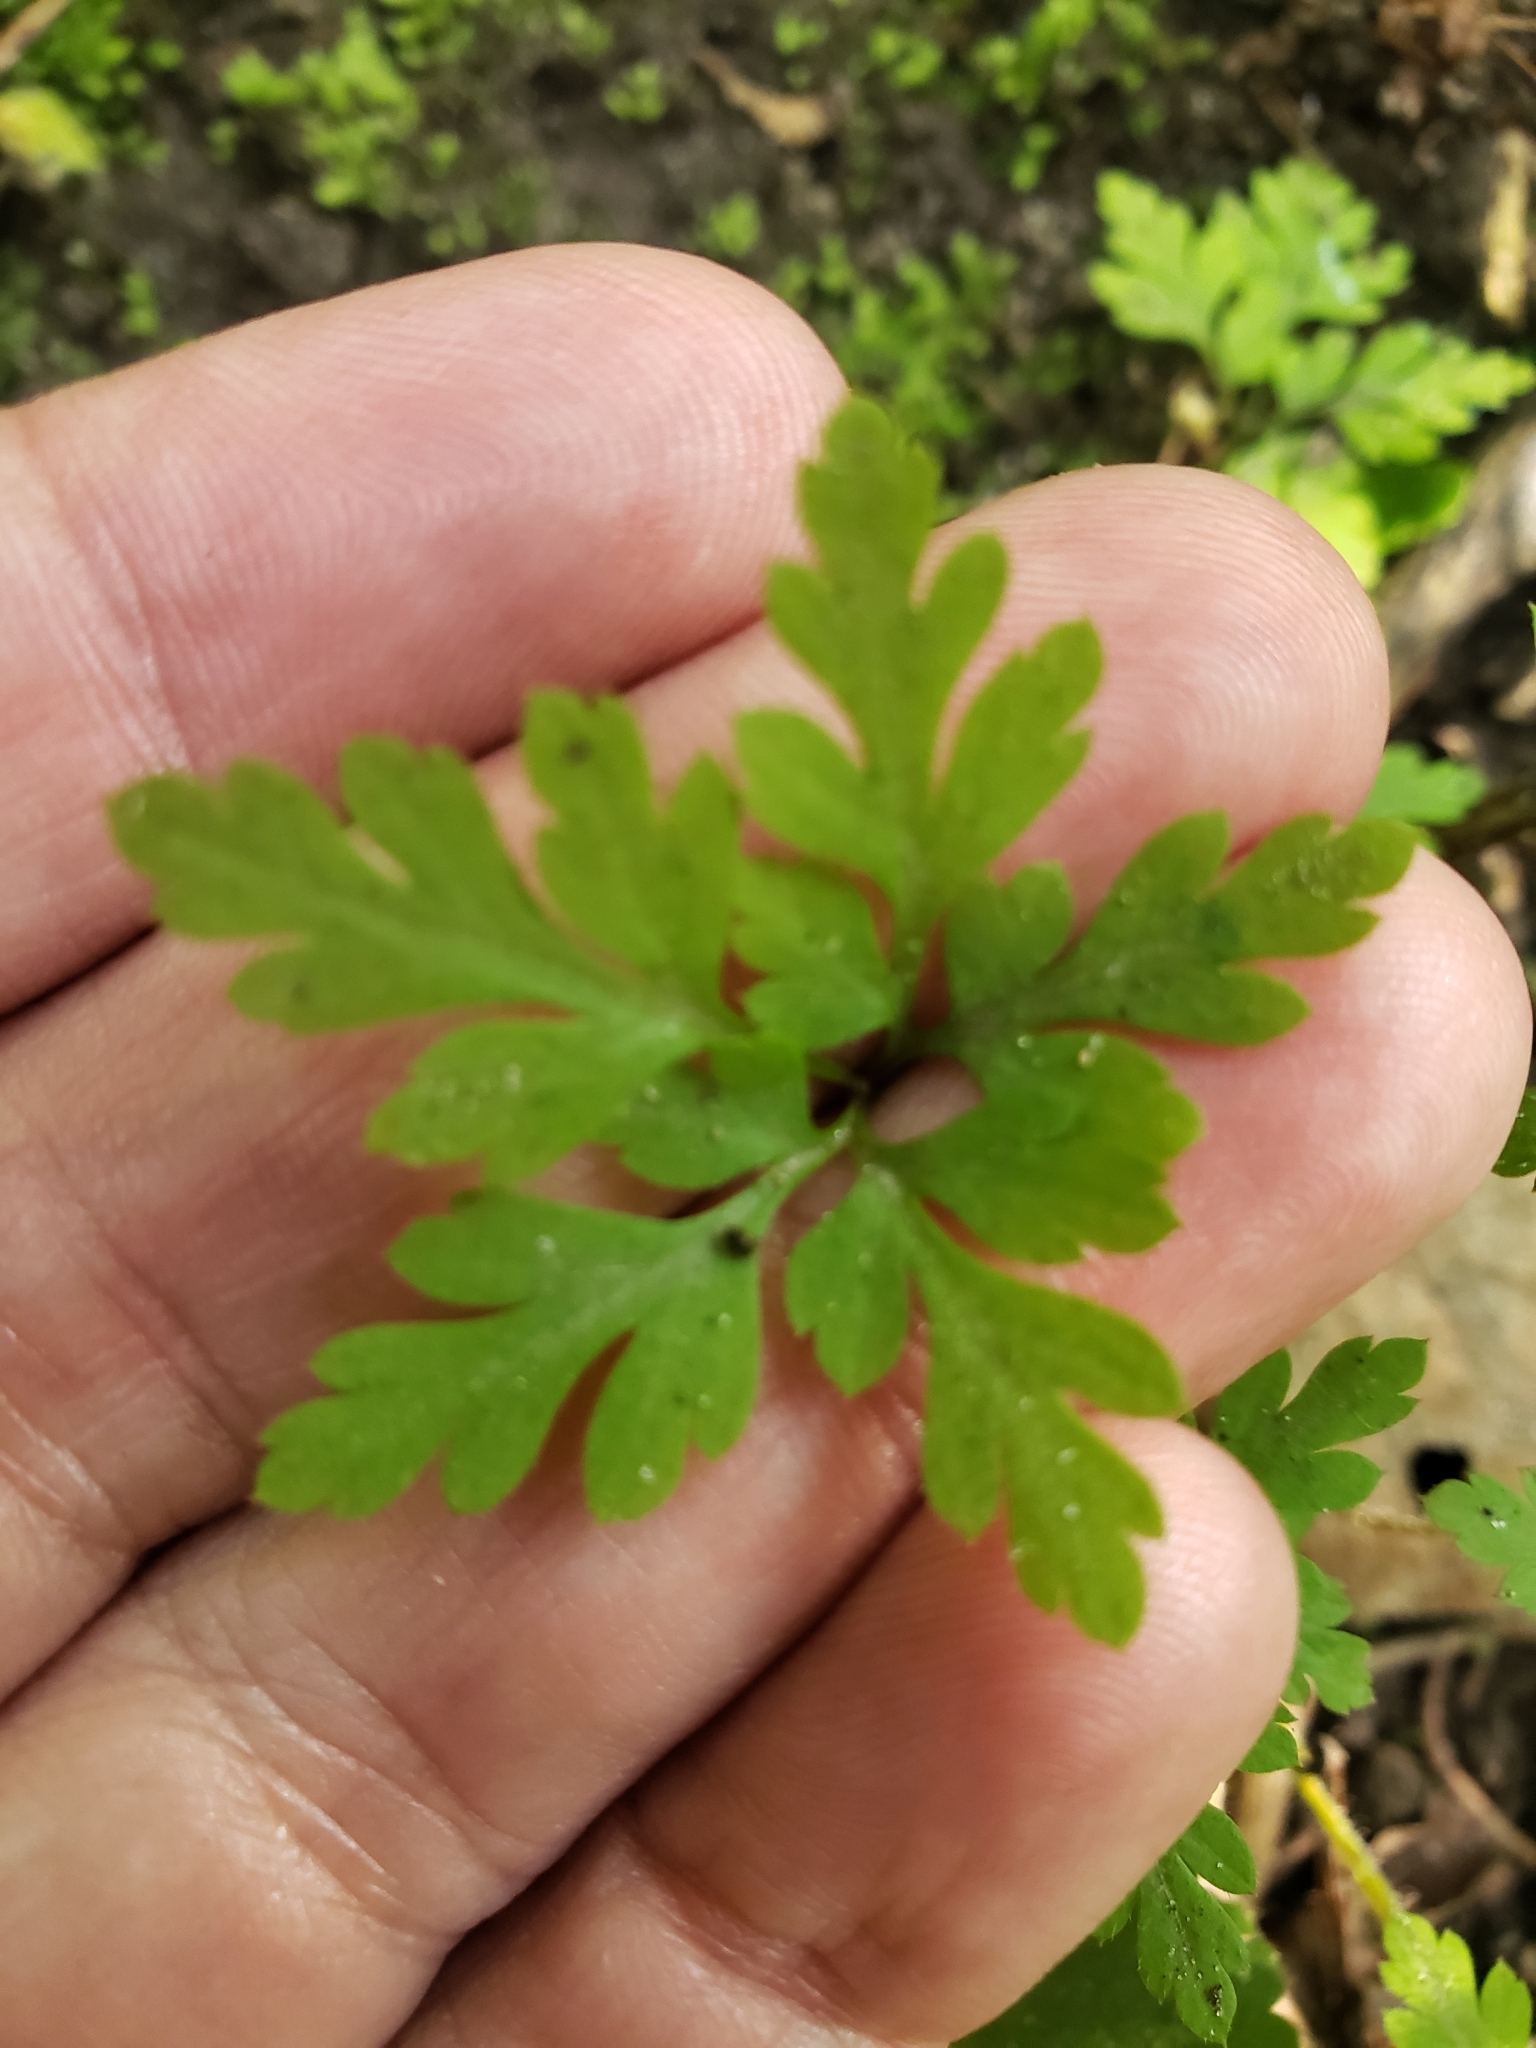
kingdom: Plantae
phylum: Tracheophyta
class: Magnoliopsida
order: Geraniales
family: Geraniaceae
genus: Geranium
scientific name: Geranium robertianum
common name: Herb-robert
